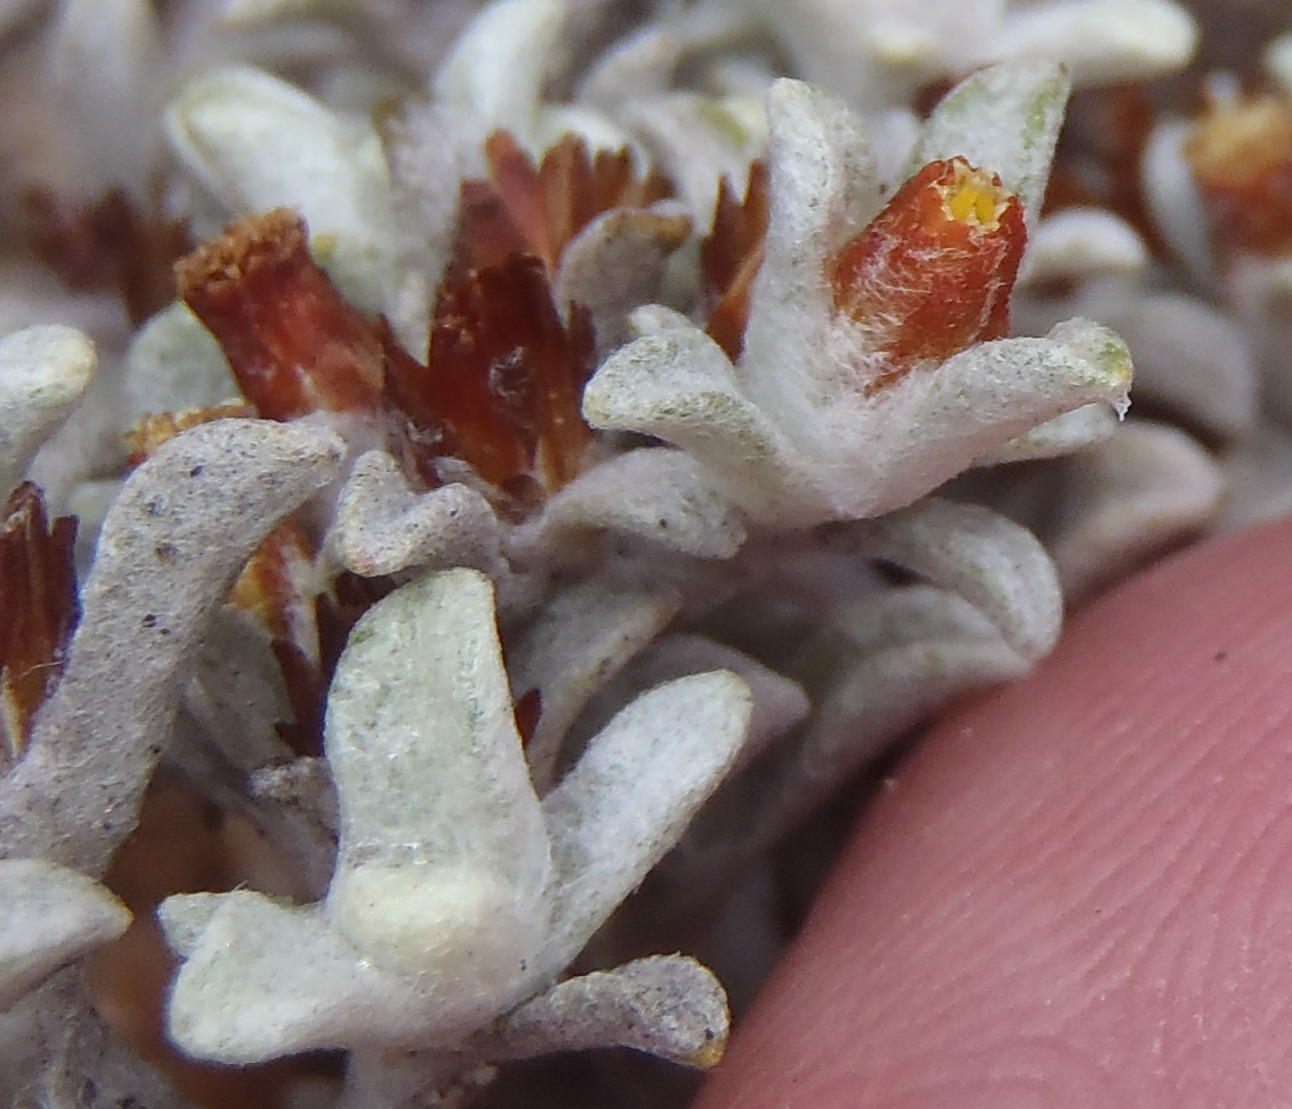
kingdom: Plantae
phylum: Tracheophyta
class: Magnoliopsida
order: Asterales
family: Asteraceae
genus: Helichrysum
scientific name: Helichrysum saxicola
